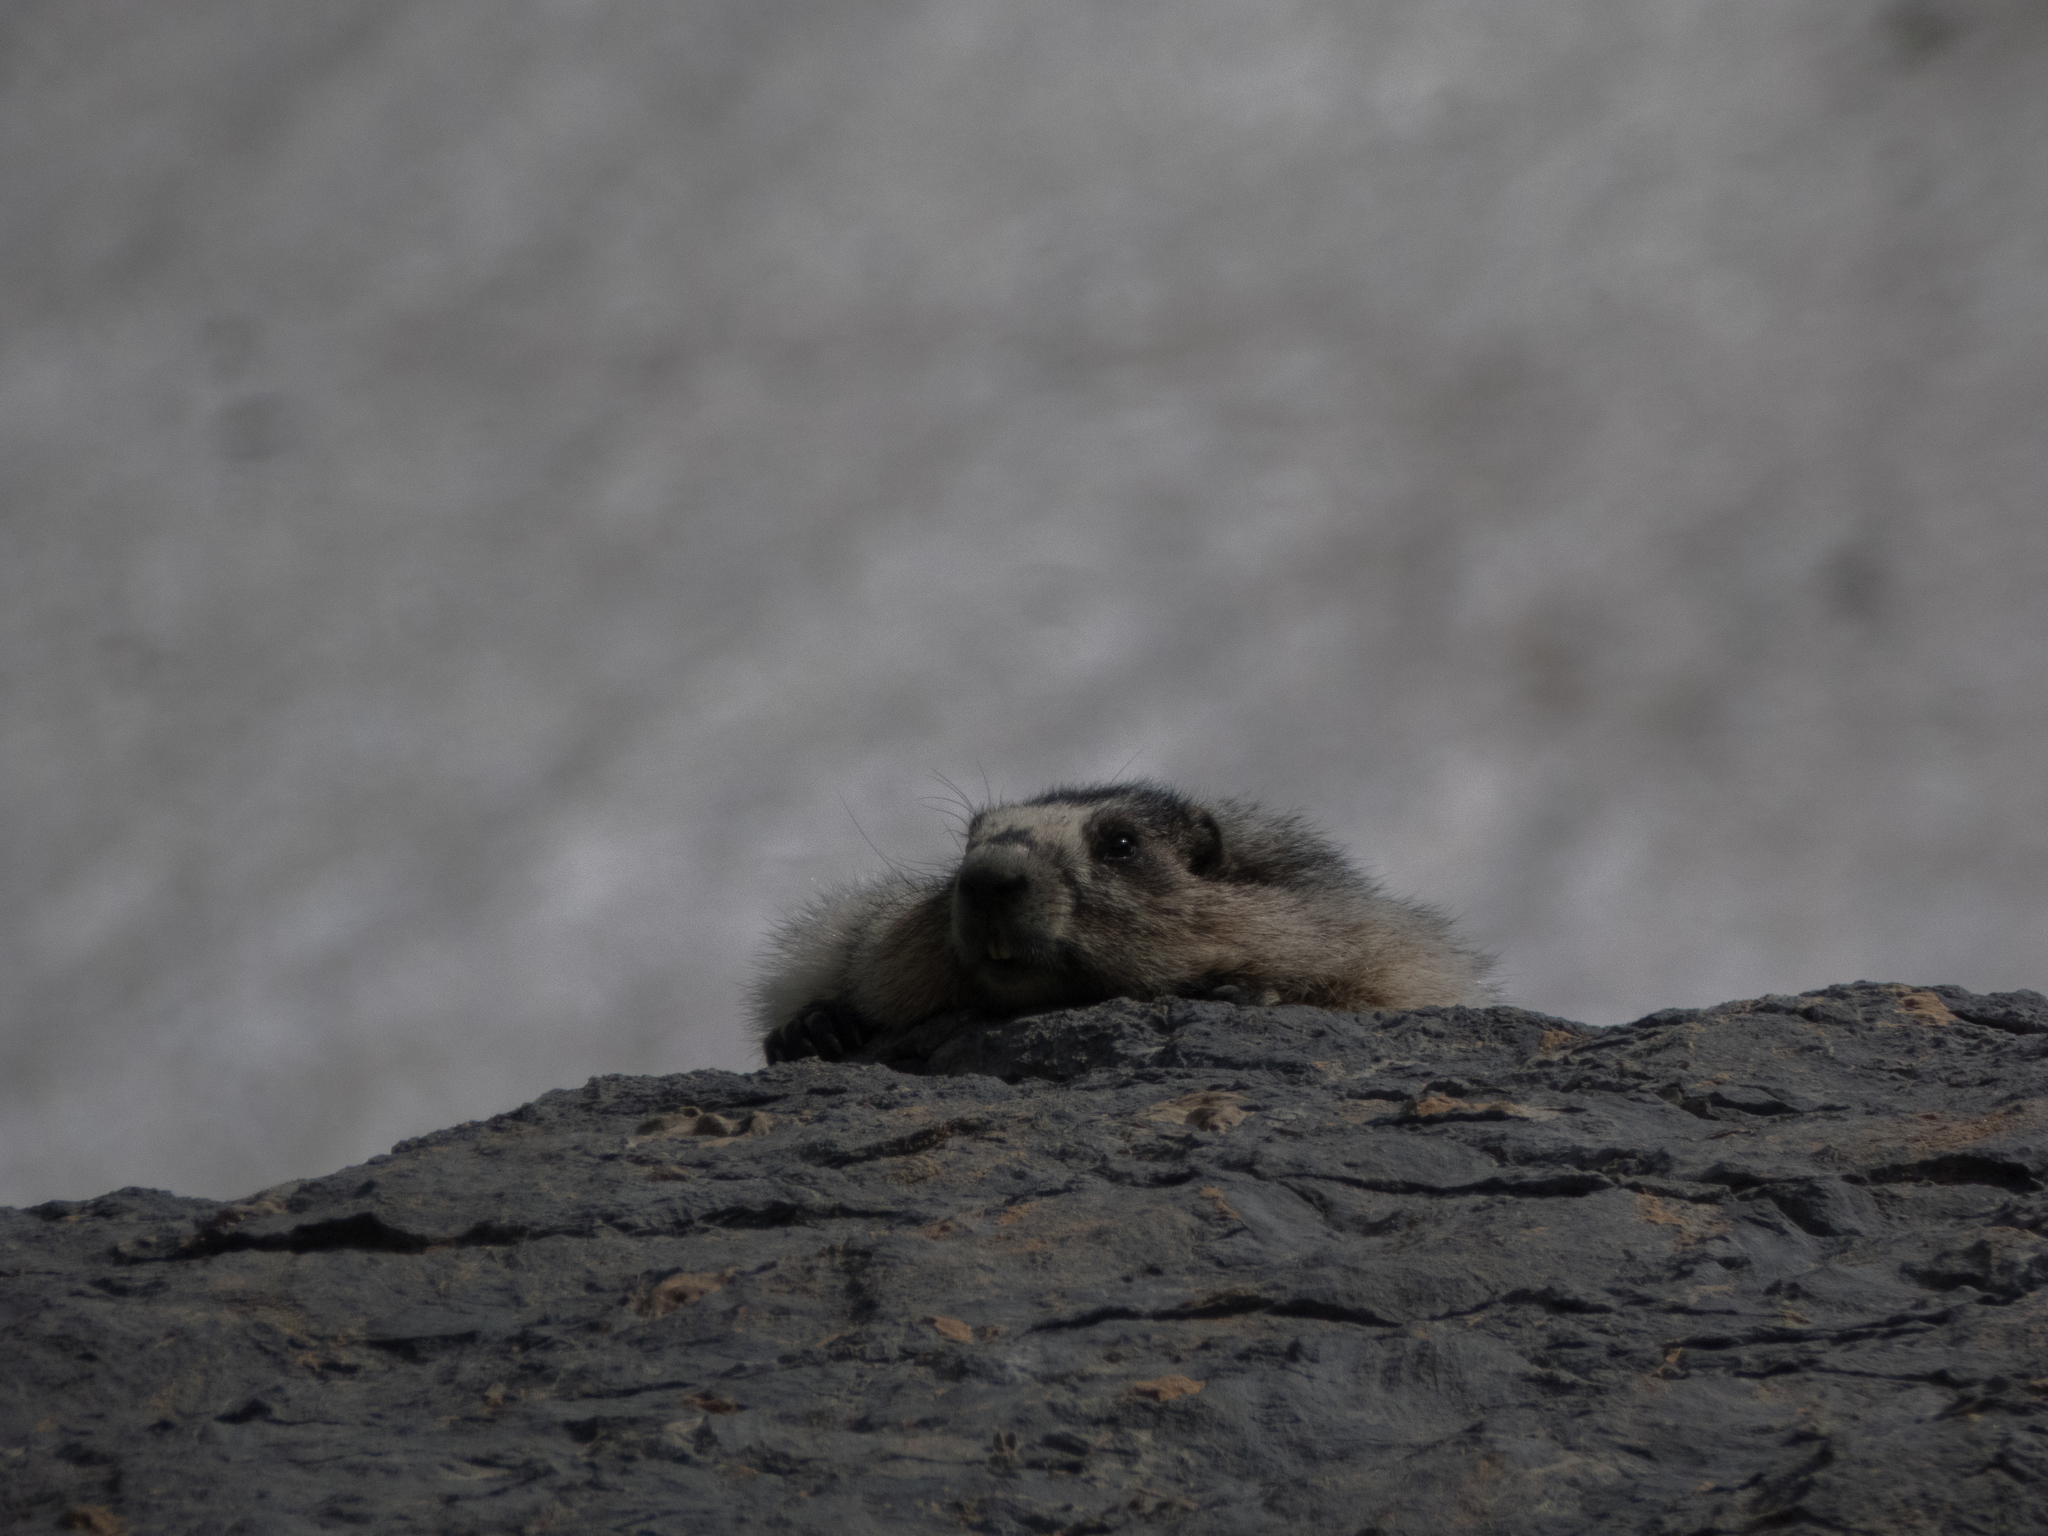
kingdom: Animalia
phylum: Chordata
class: Mammalia
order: Rodentia
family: Sciuridae
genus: Marmota
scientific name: Marmota caligata
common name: Hoary marmot
